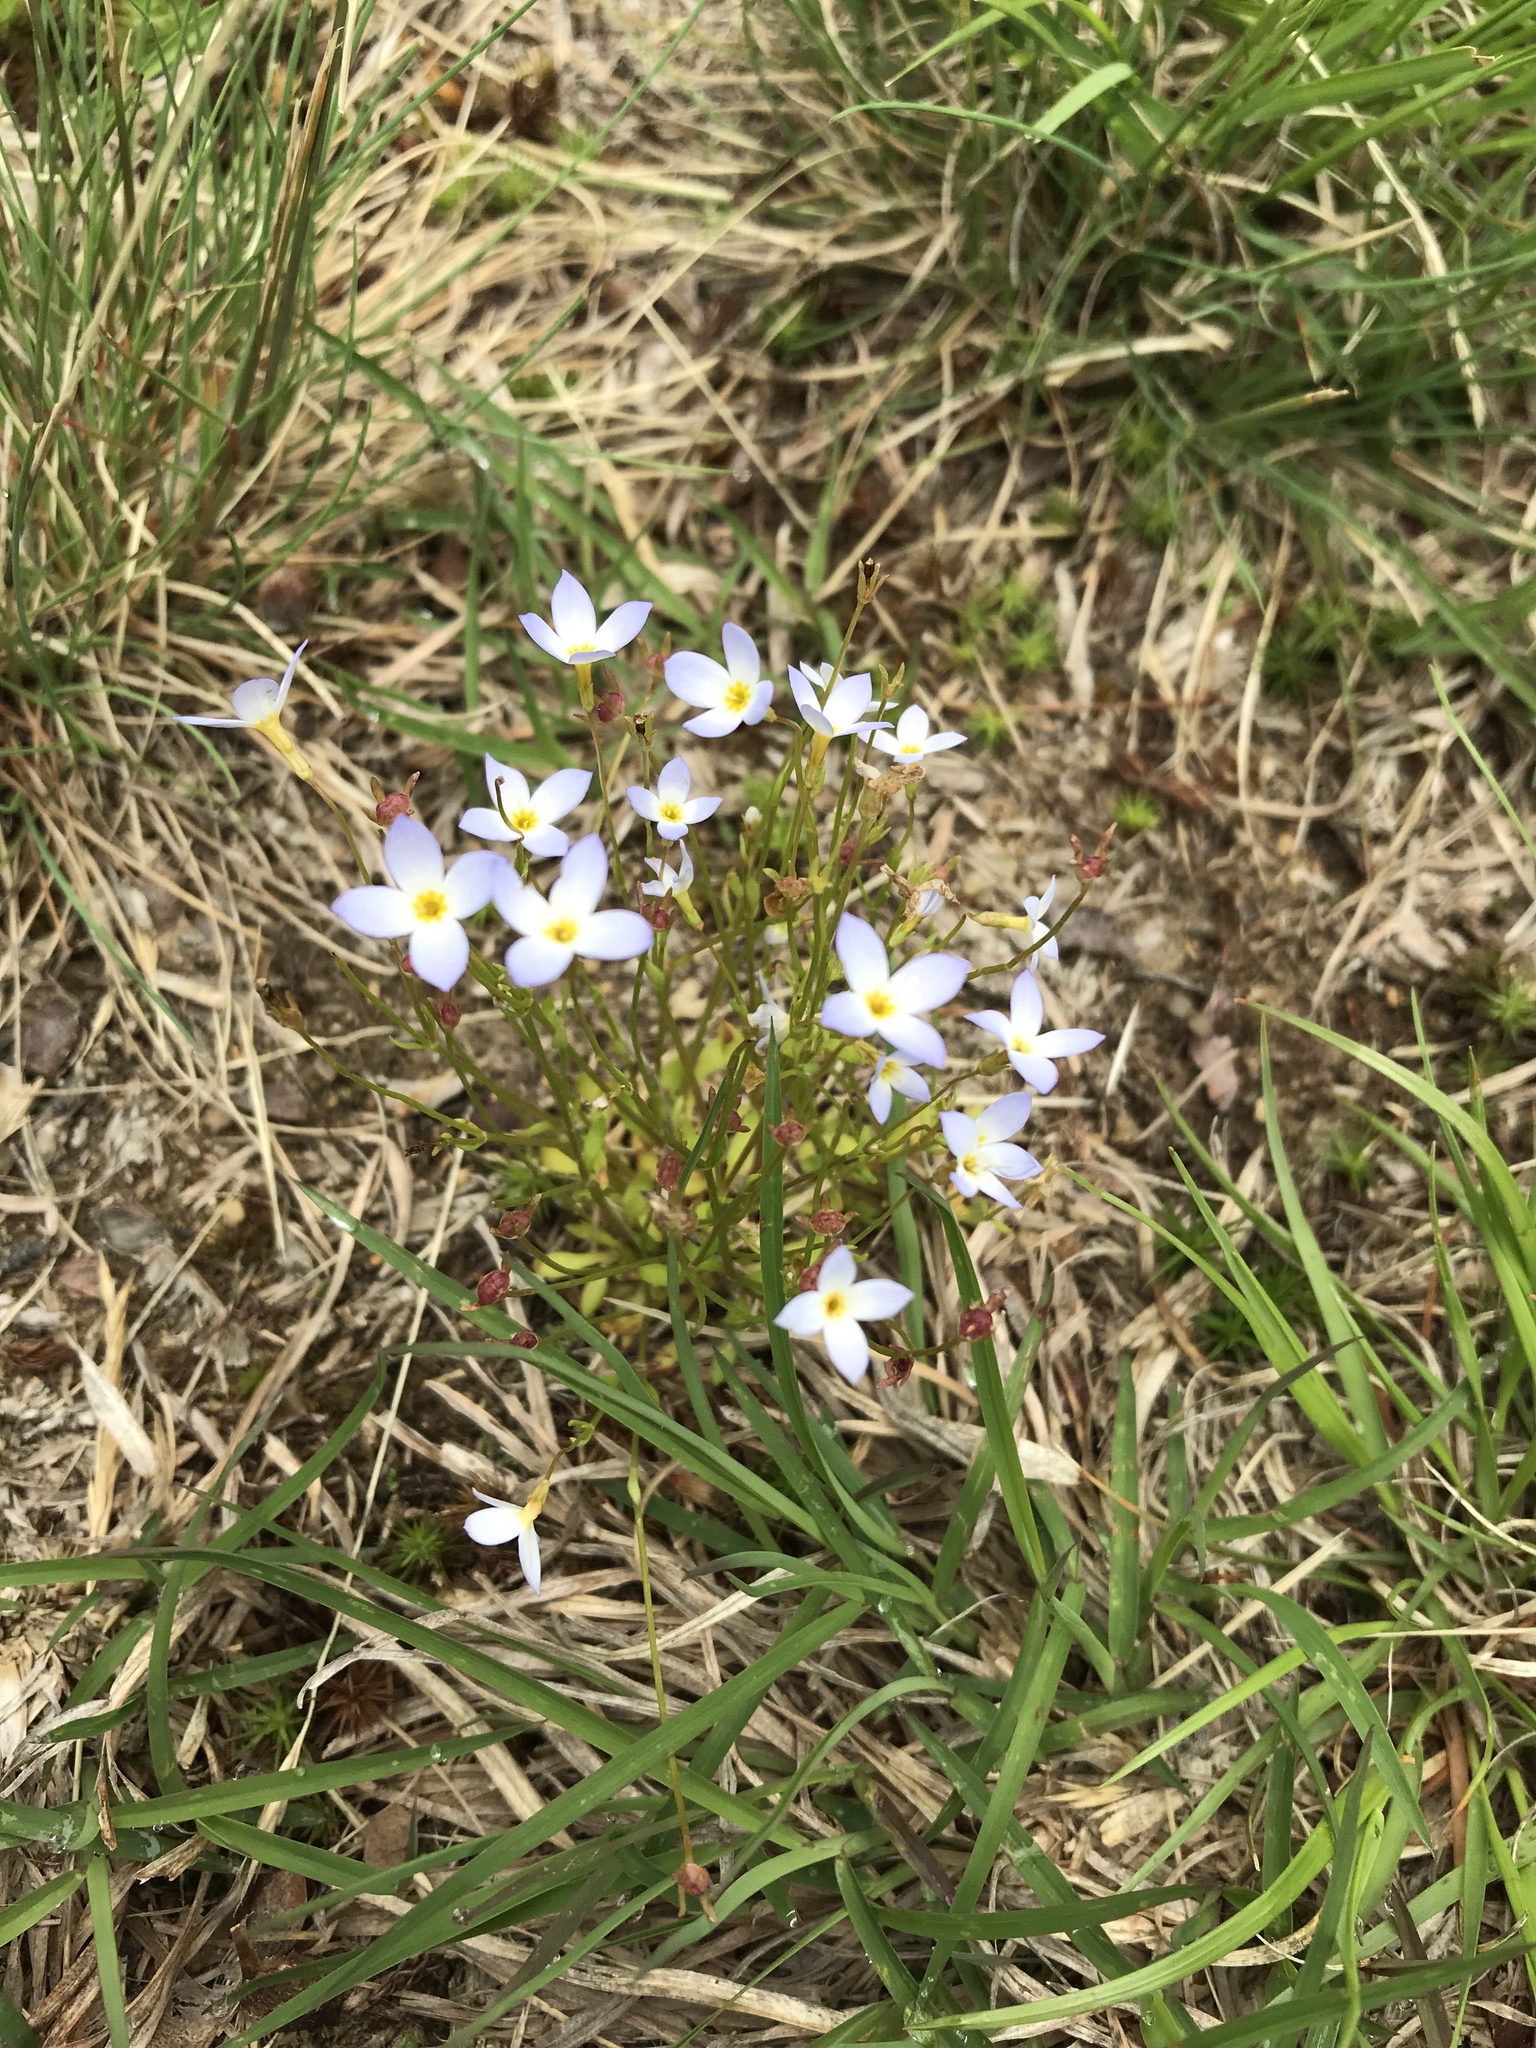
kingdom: Plantae
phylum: Tracheophyta
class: Magnoliopsida
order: Gentianales
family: Rubiaceae
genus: Houstonia
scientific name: Houstonia caerulea
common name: Bluets
